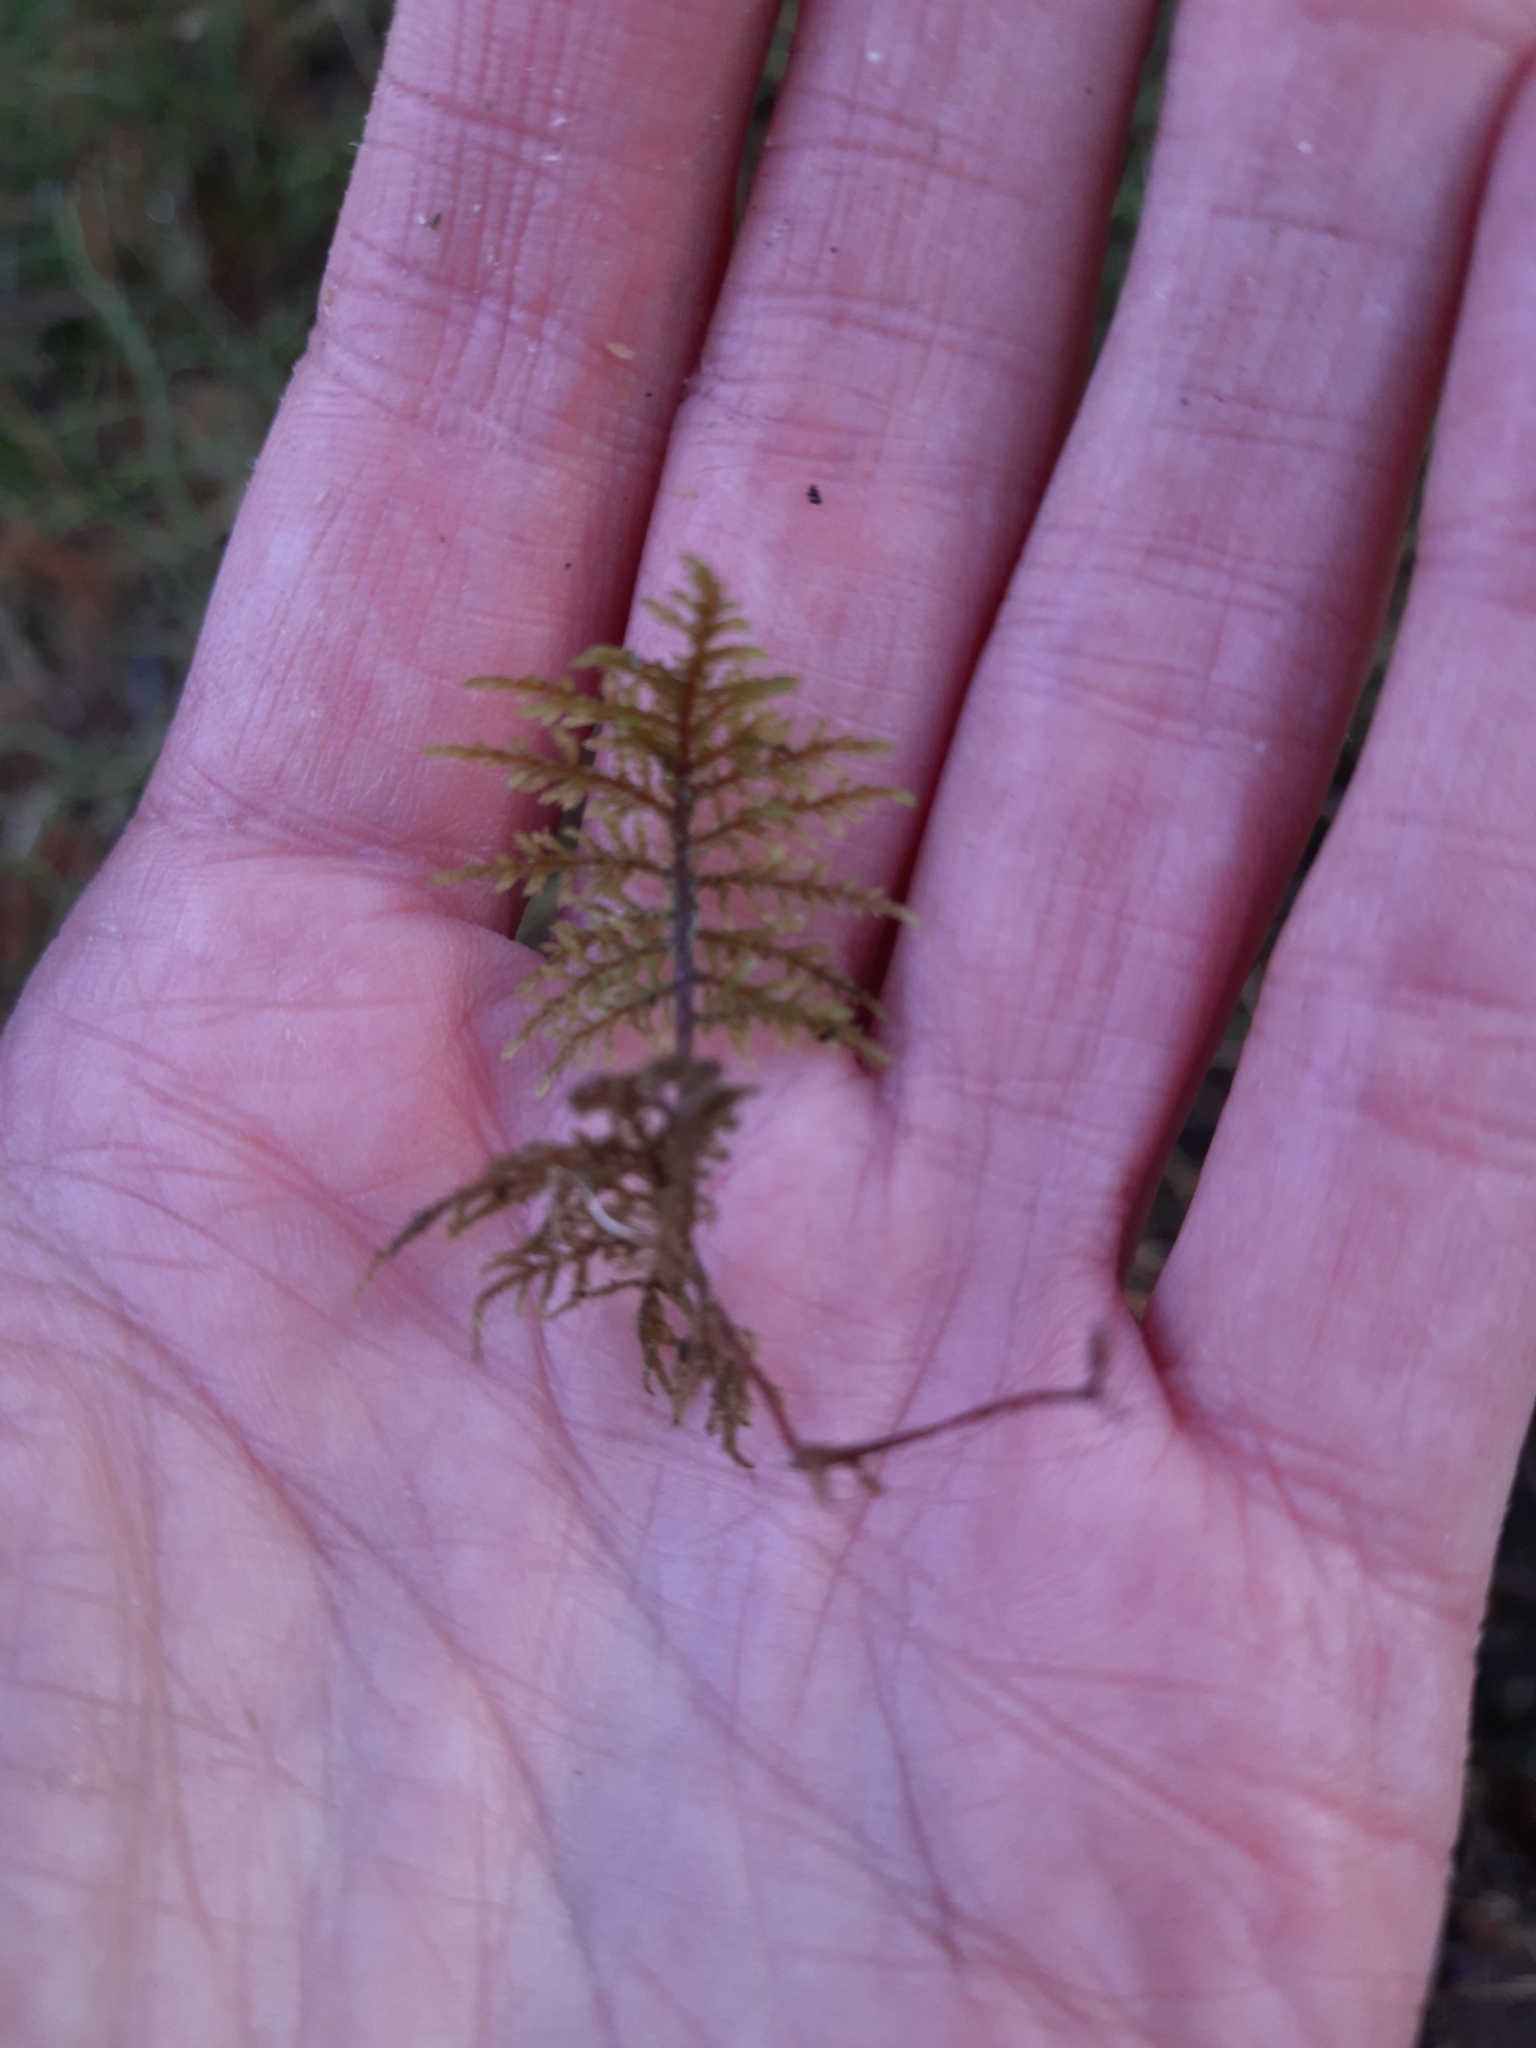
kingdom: Plantae
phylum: Bryophyta
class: Bryopsida
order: Hypnales
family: Hylocomiaceae
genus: Hylocomium
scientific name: Hylocomium splendens
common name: Stairstep moss
